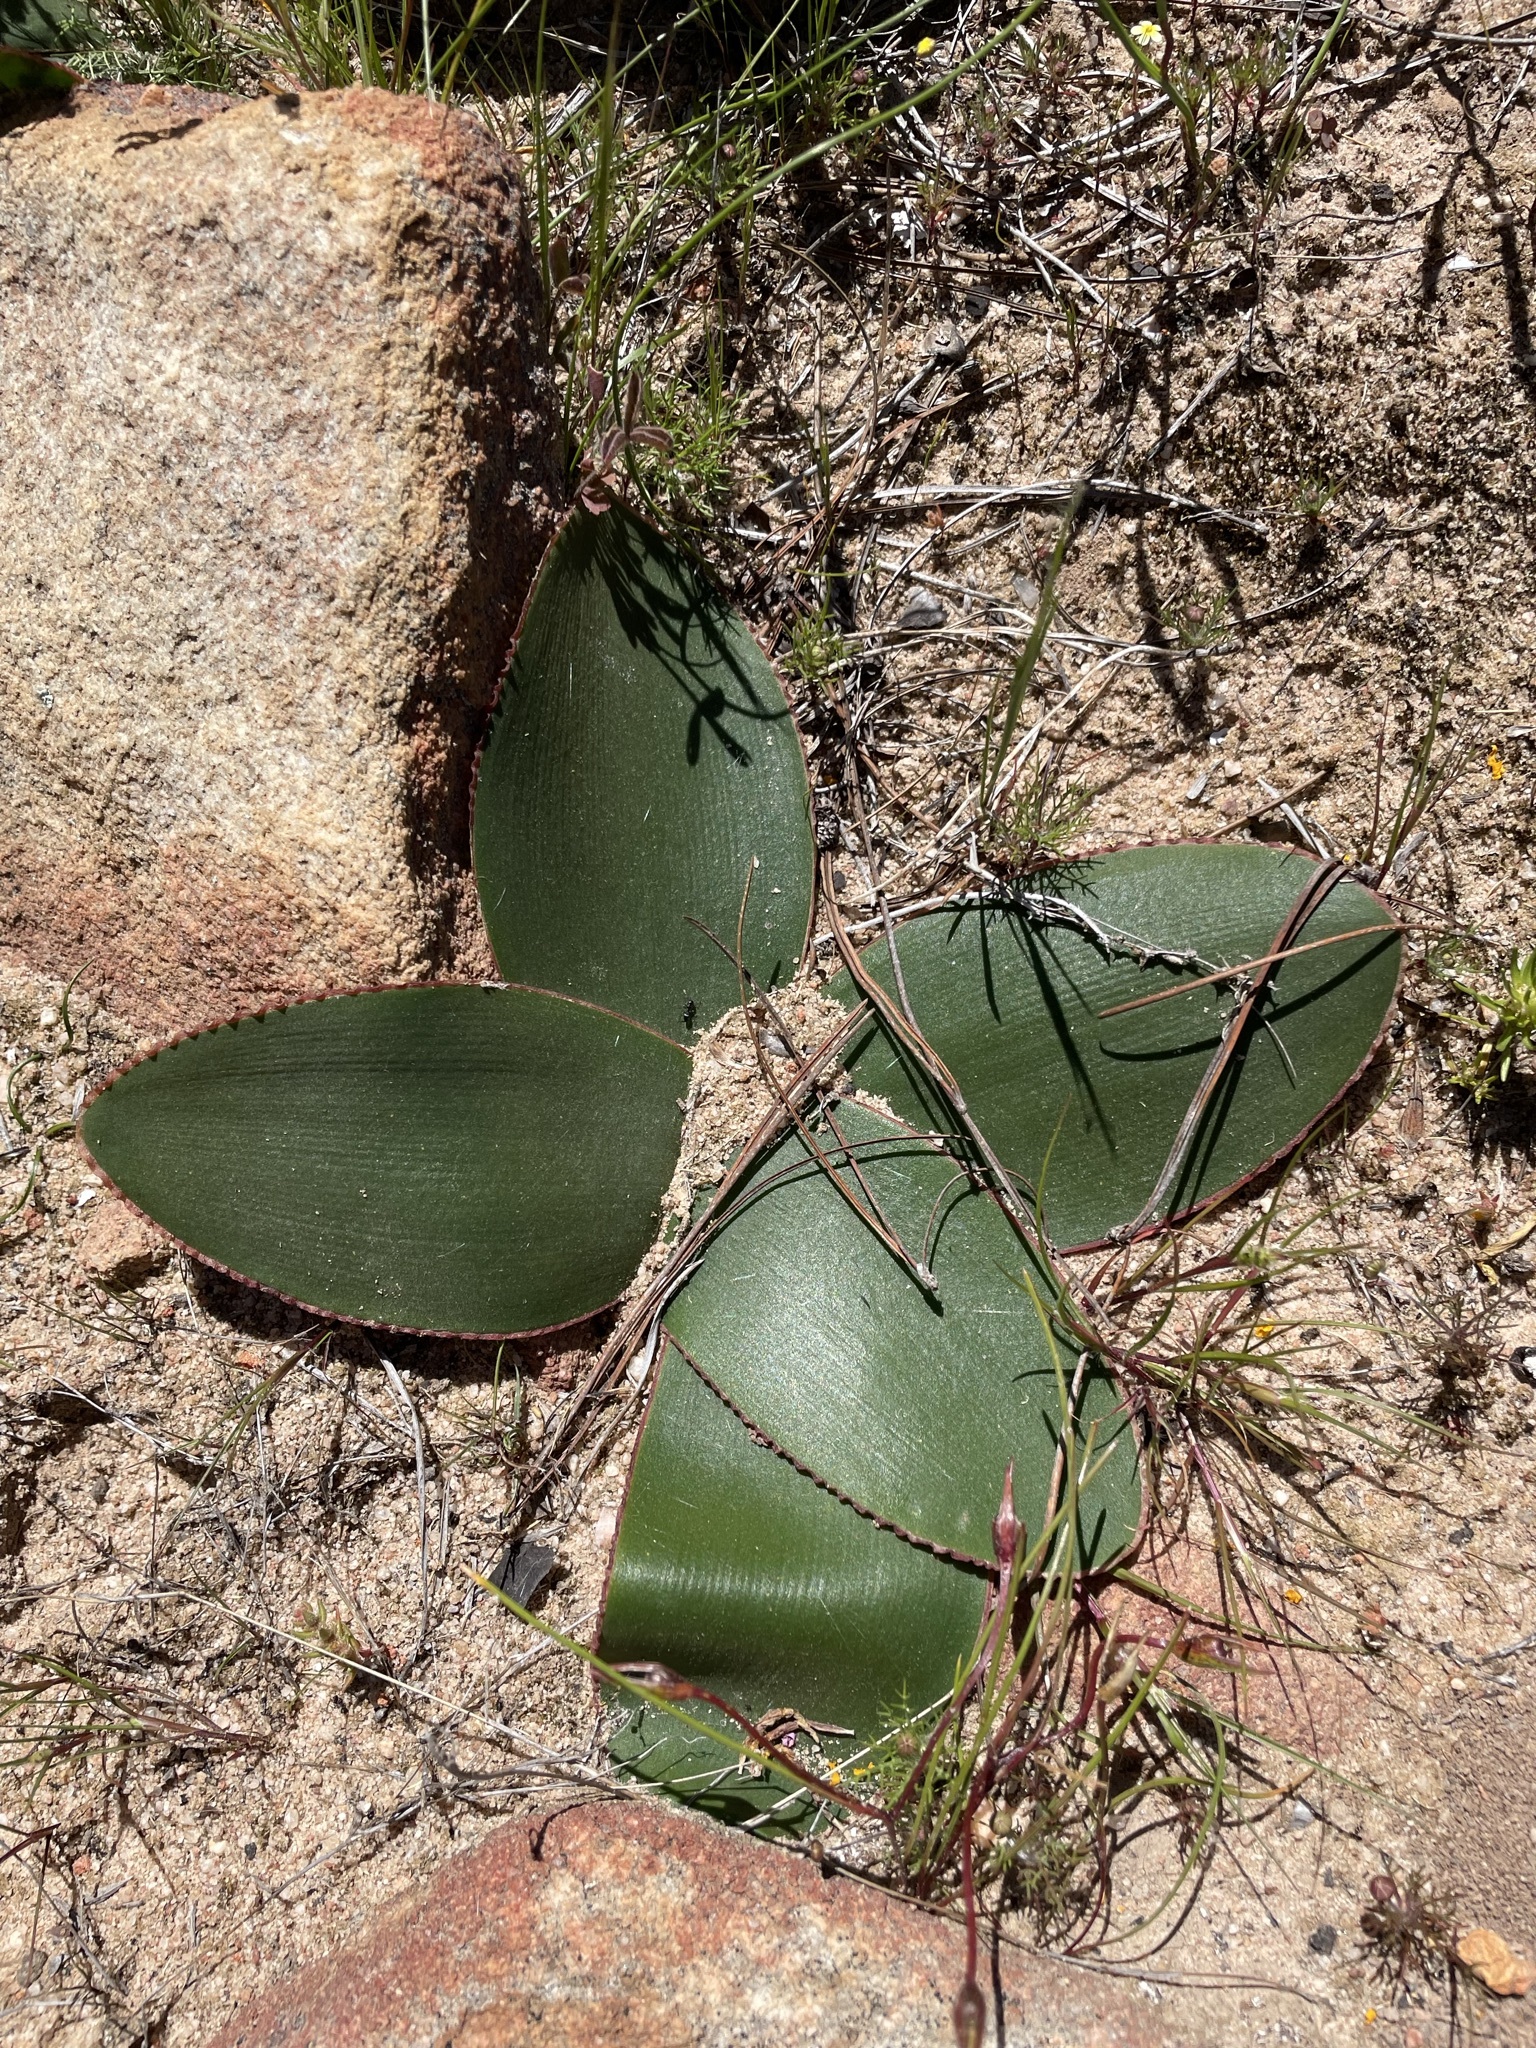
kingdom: Plantae
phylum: Tracheophyta
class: Liliopsida
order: Asparagales
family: Amaryllidaceae
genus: Brunsvigia
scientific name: Brunsvigia nervosa
